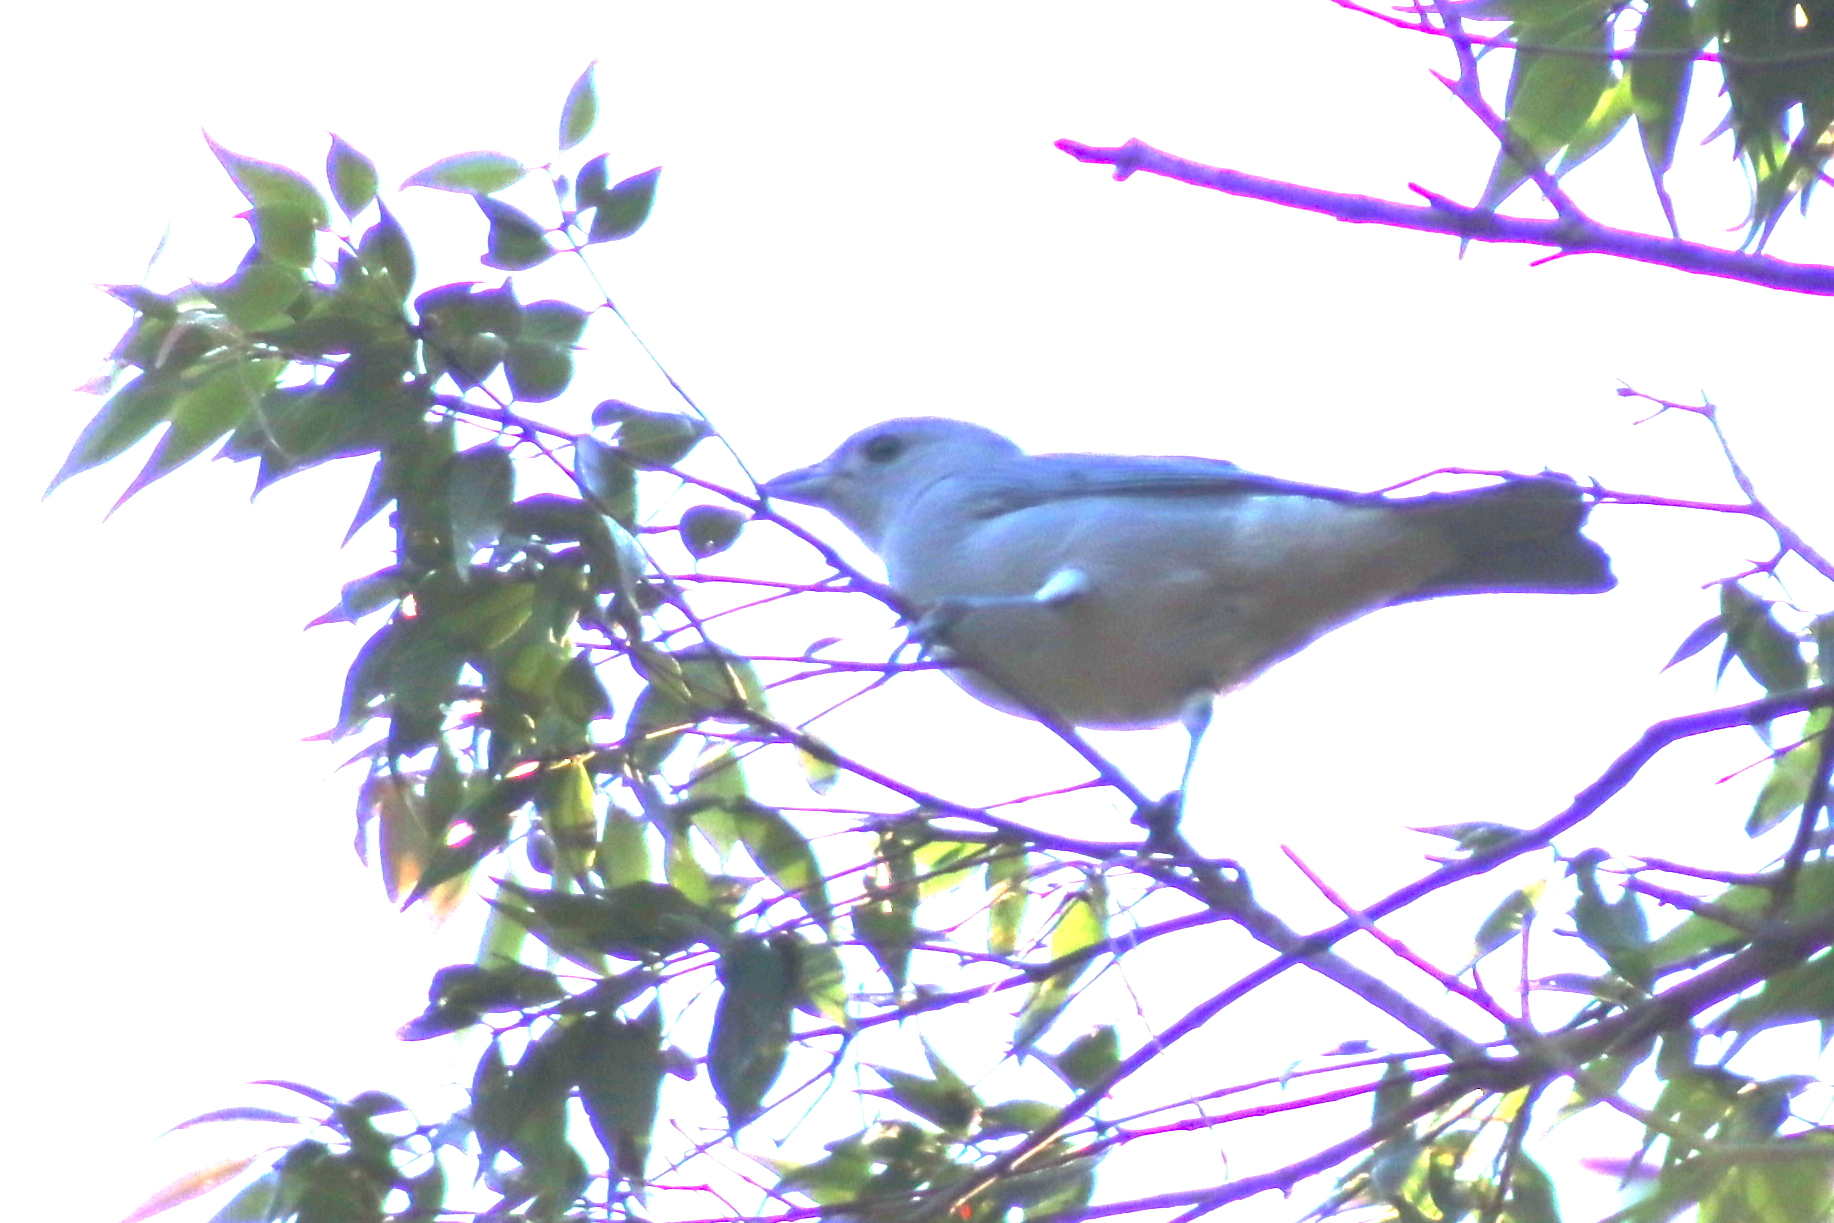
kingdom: Animalia
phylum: Chordata
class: Aves
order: Passeriformes
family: Thraupidae
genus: Thraupis
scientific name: Thraupis sayaca
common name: Sayaca tanager
